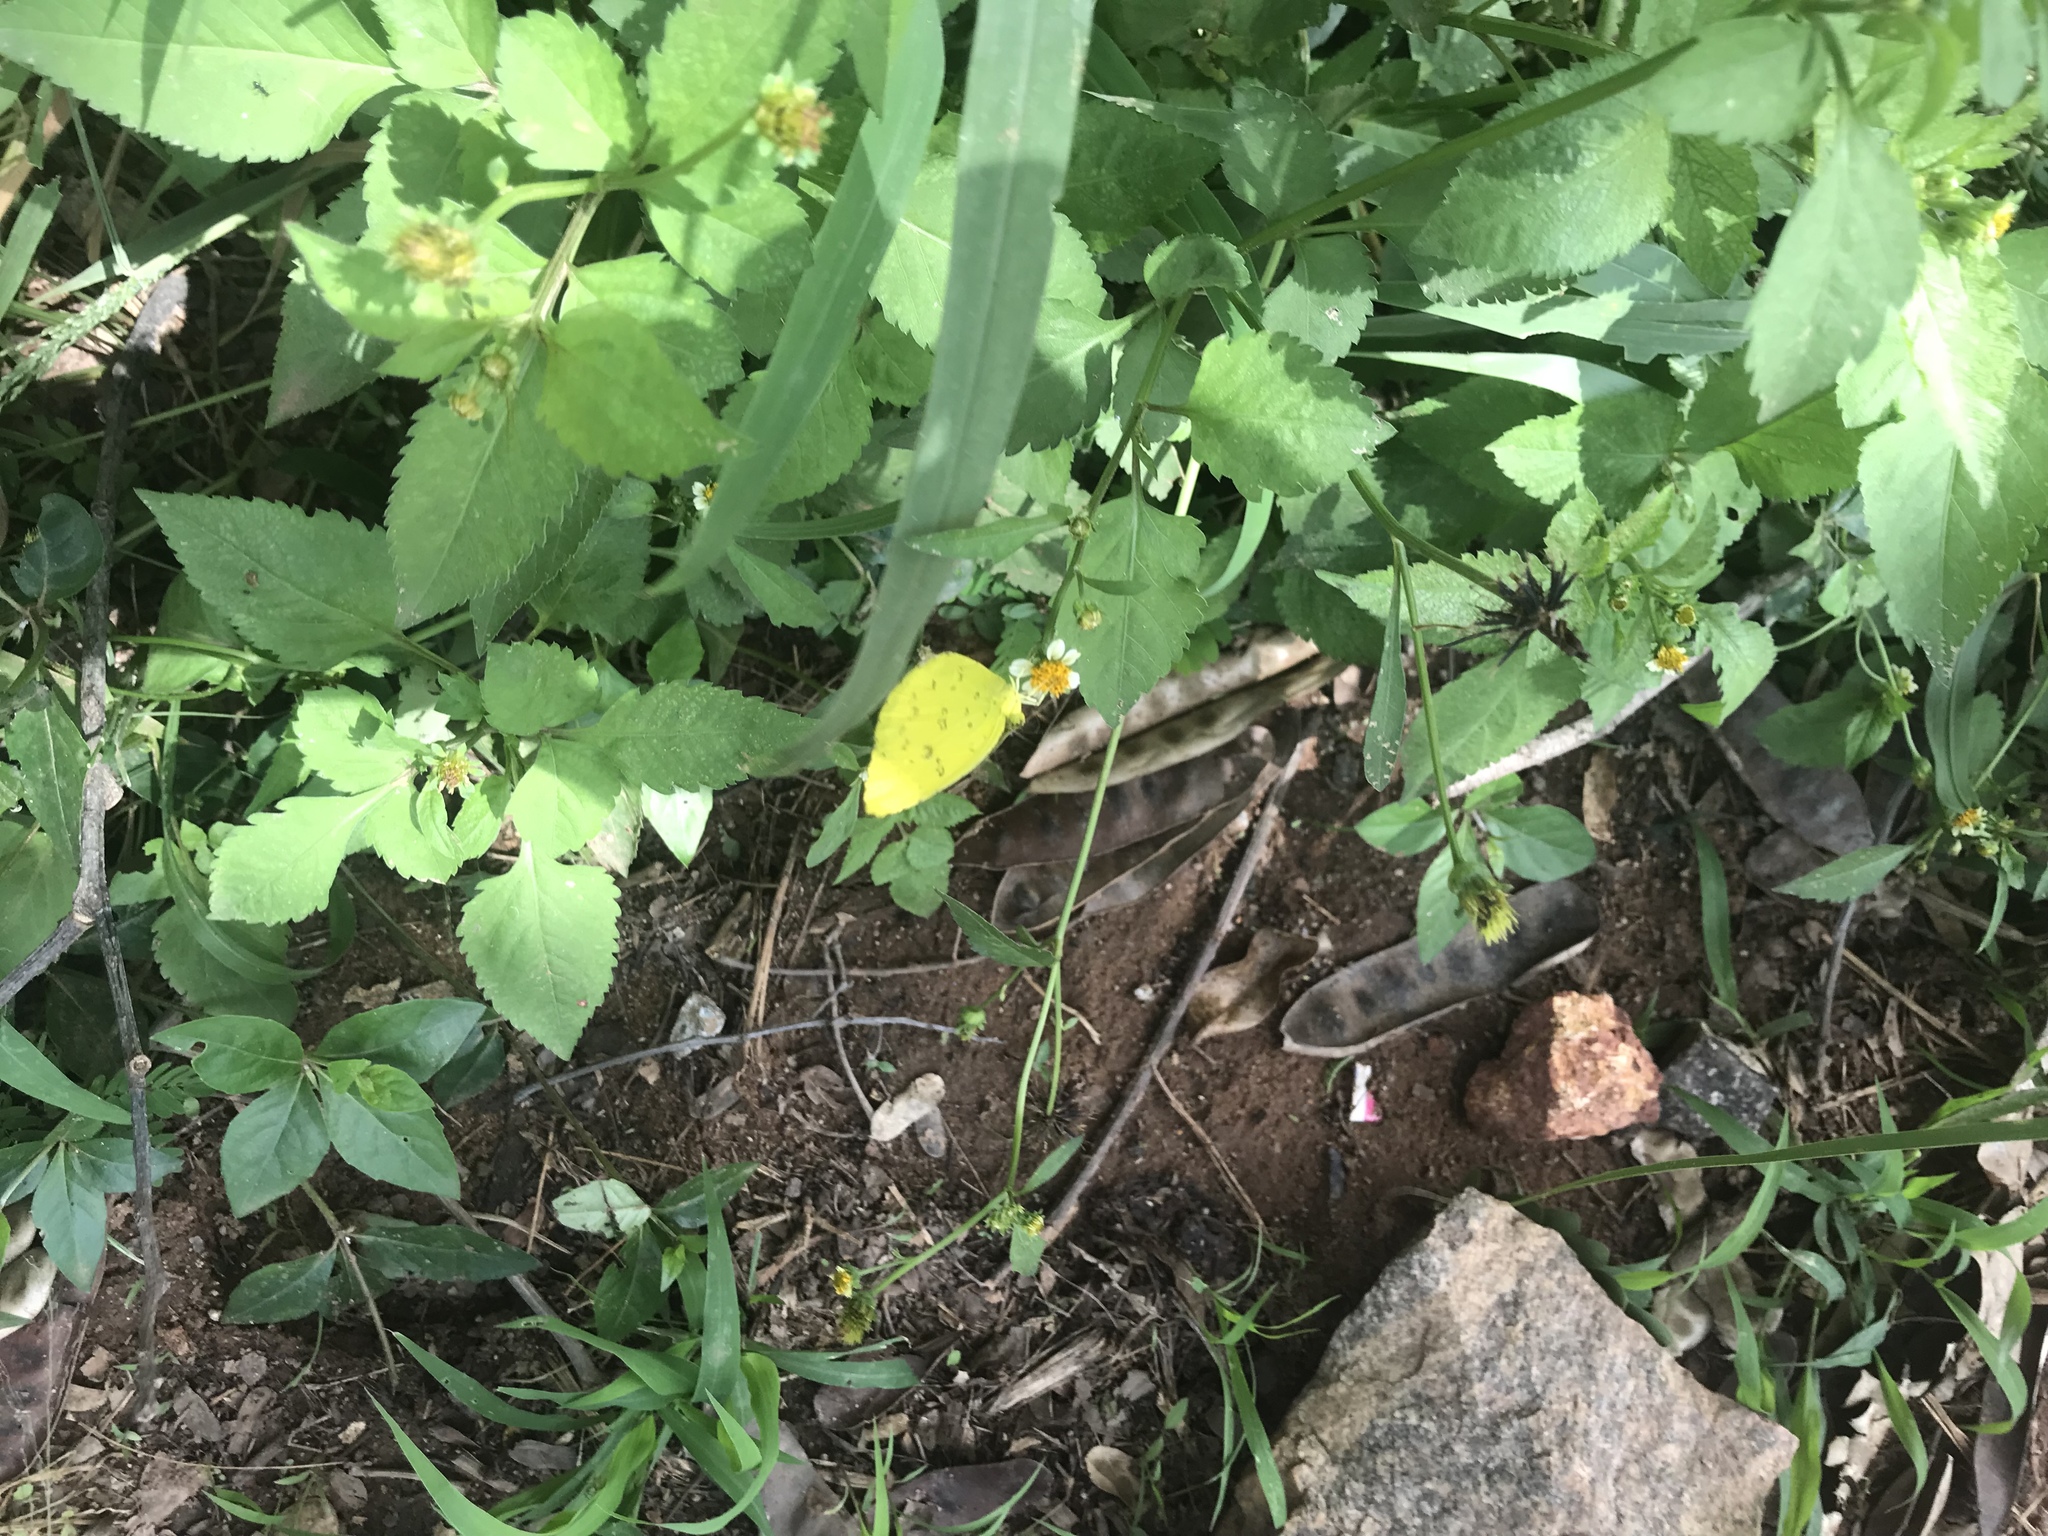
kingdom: Animalia
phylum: Arthropoda
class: Insecta
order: Lepidoptera
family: Pieridae
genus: Eurema
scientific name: Eurema hecabe
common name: Pale grass yellow
